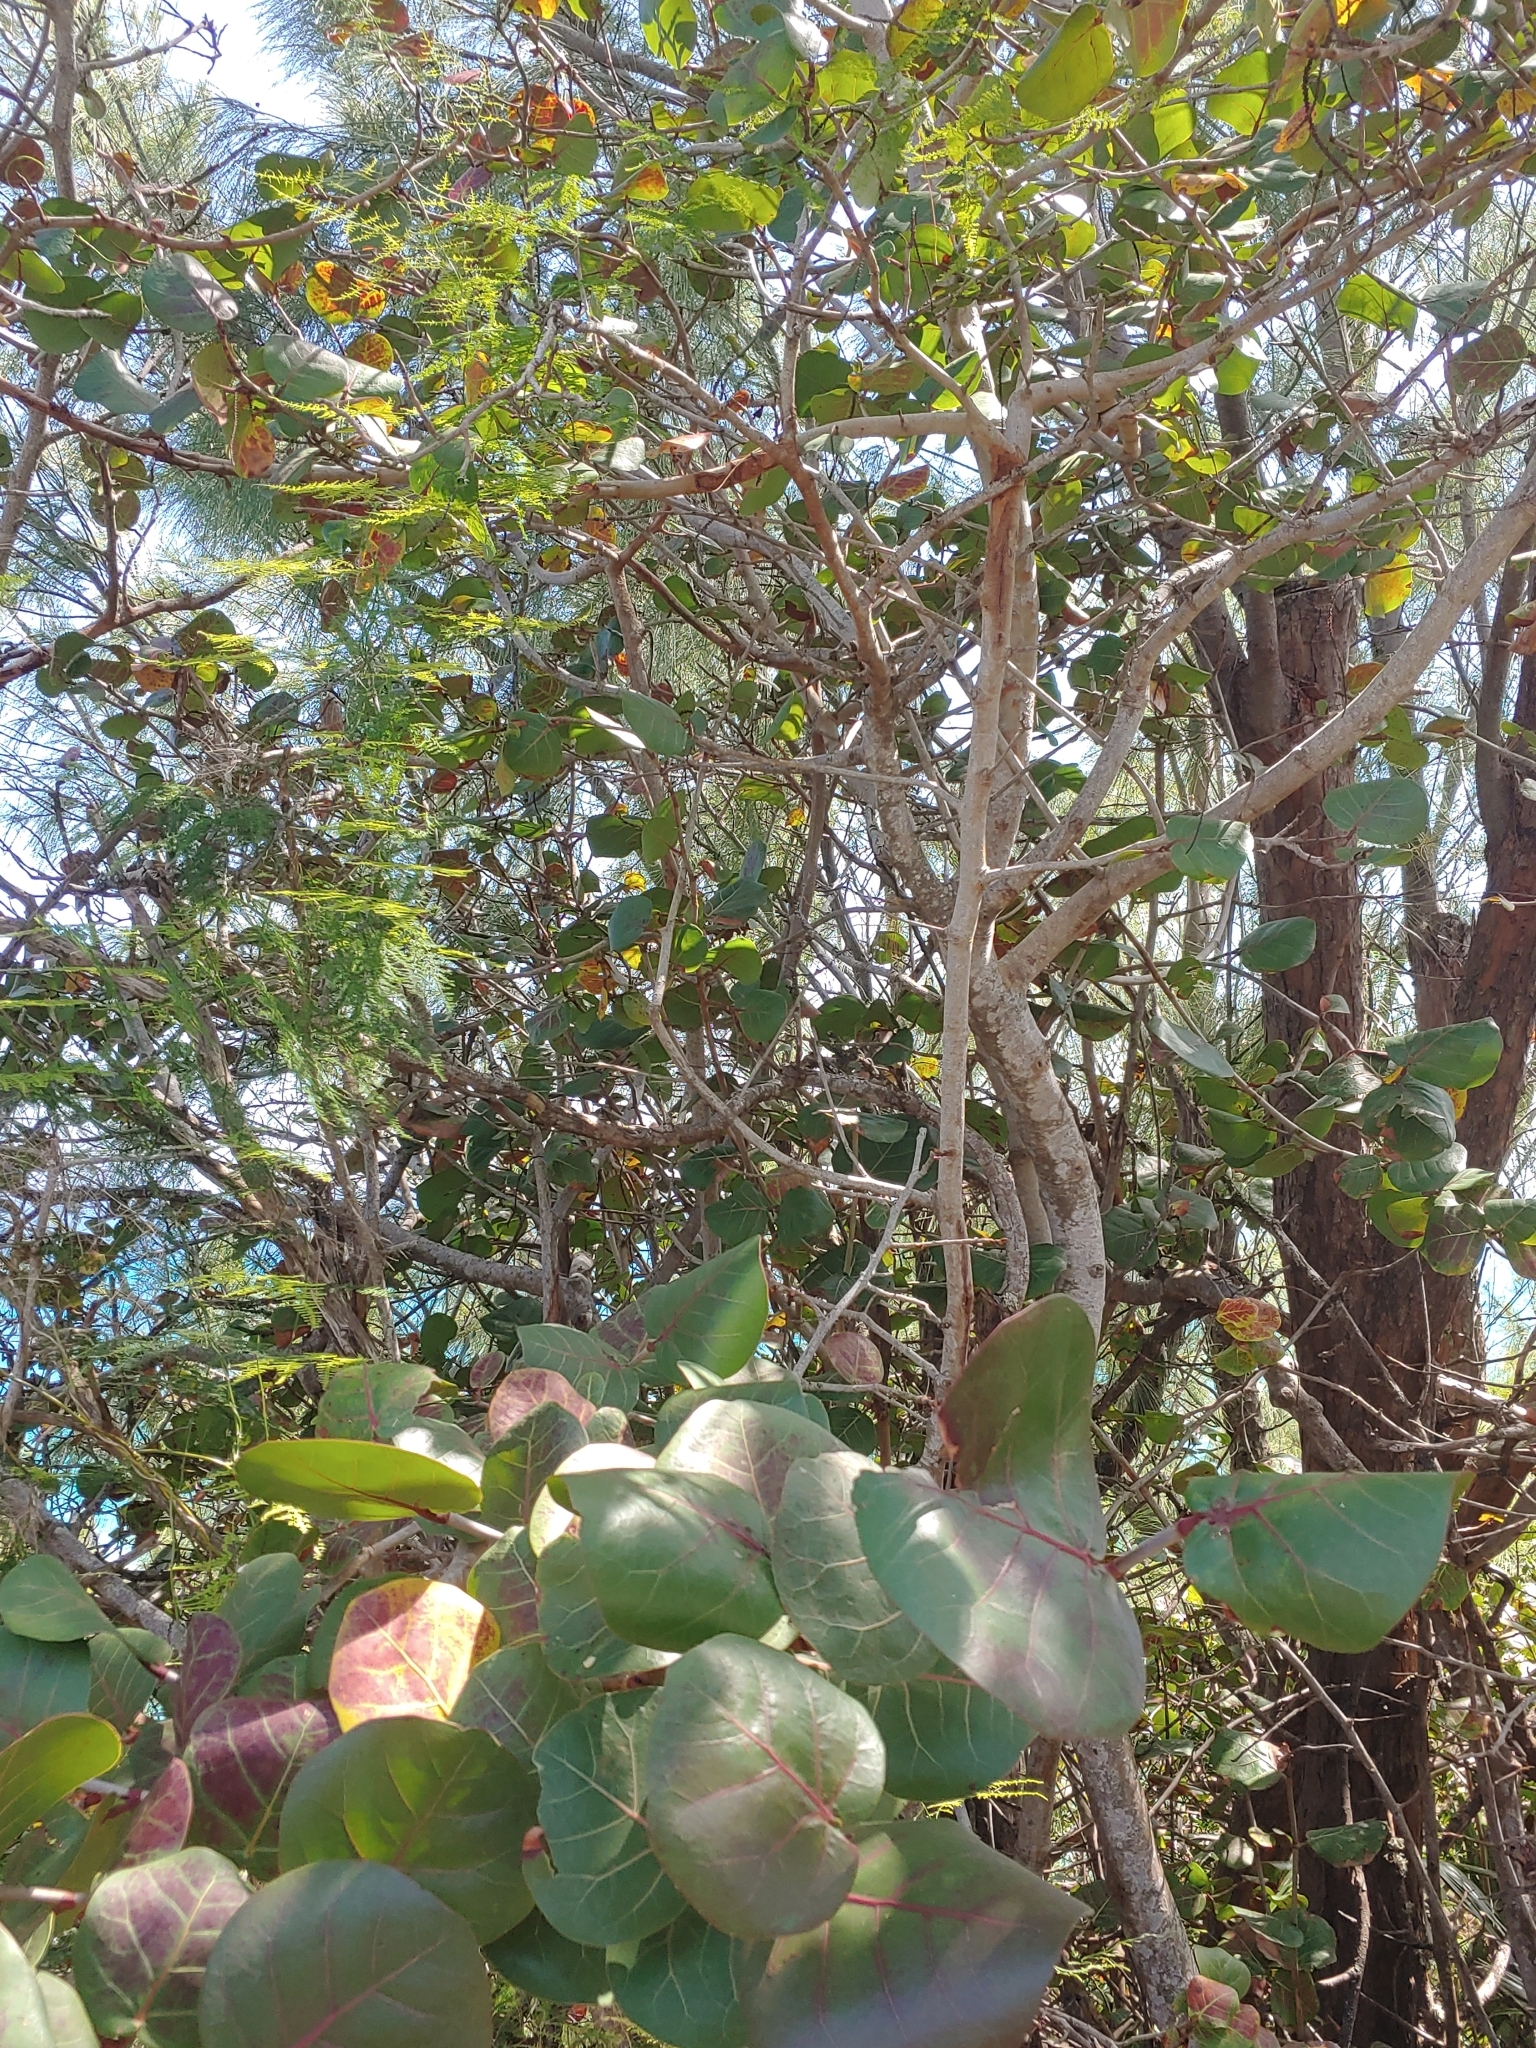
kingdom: Plantae
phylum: Tracheophyta
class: Magnoliopsida
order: Caryophyllales
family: Polygonaceae
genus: Coccoloba
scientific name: Coccoloba uvifera
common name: Seagrape
